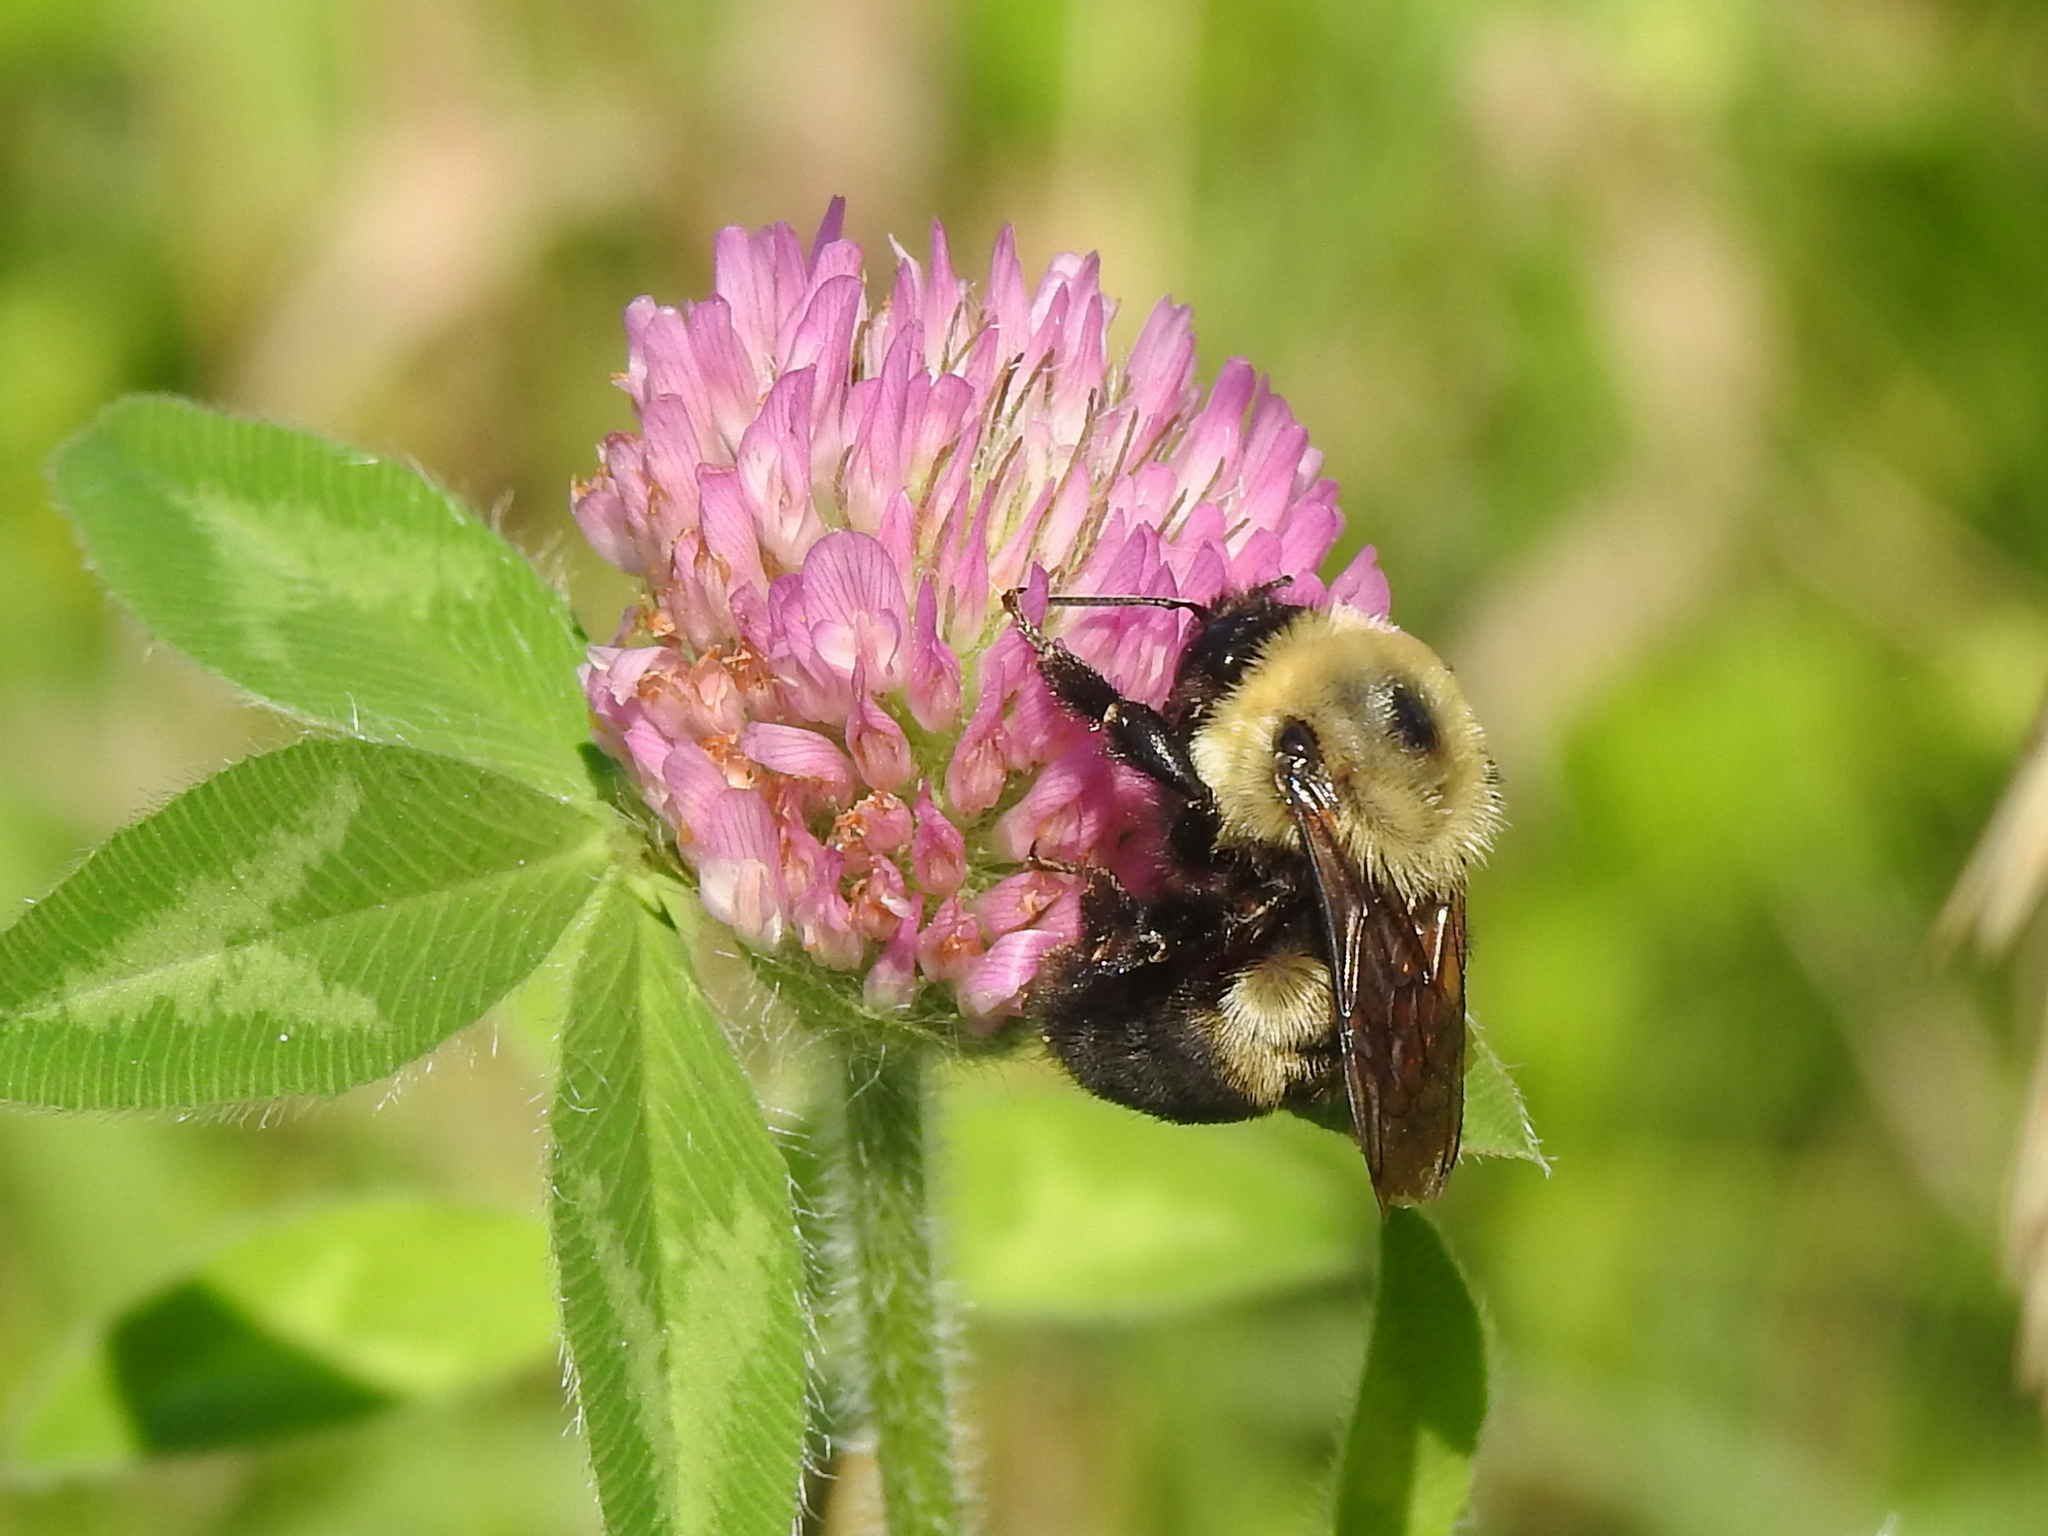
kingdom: Animalia
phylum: Arthropoda
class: Insecta
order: Hymenoptera
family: Apidae
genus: Bombus
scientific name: Bombus griseocollis
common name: Brown-belted bumble bee
